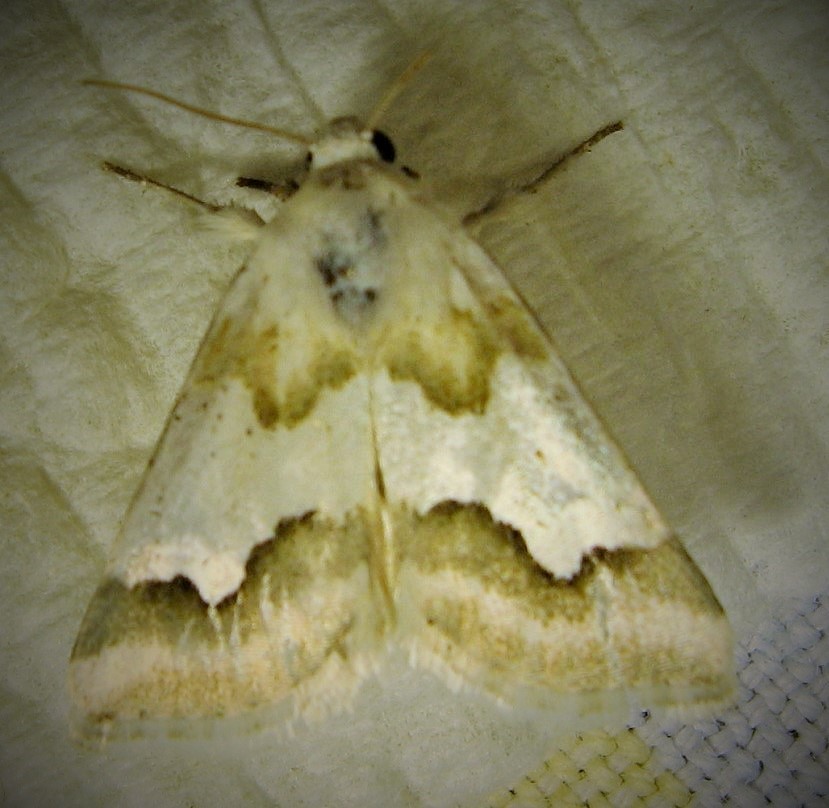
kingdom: Animalia
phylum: Arthropoda
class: Insecta
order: Lepidoptera
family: Noctuidae
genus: Schinia
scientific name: Schinia hulstia
